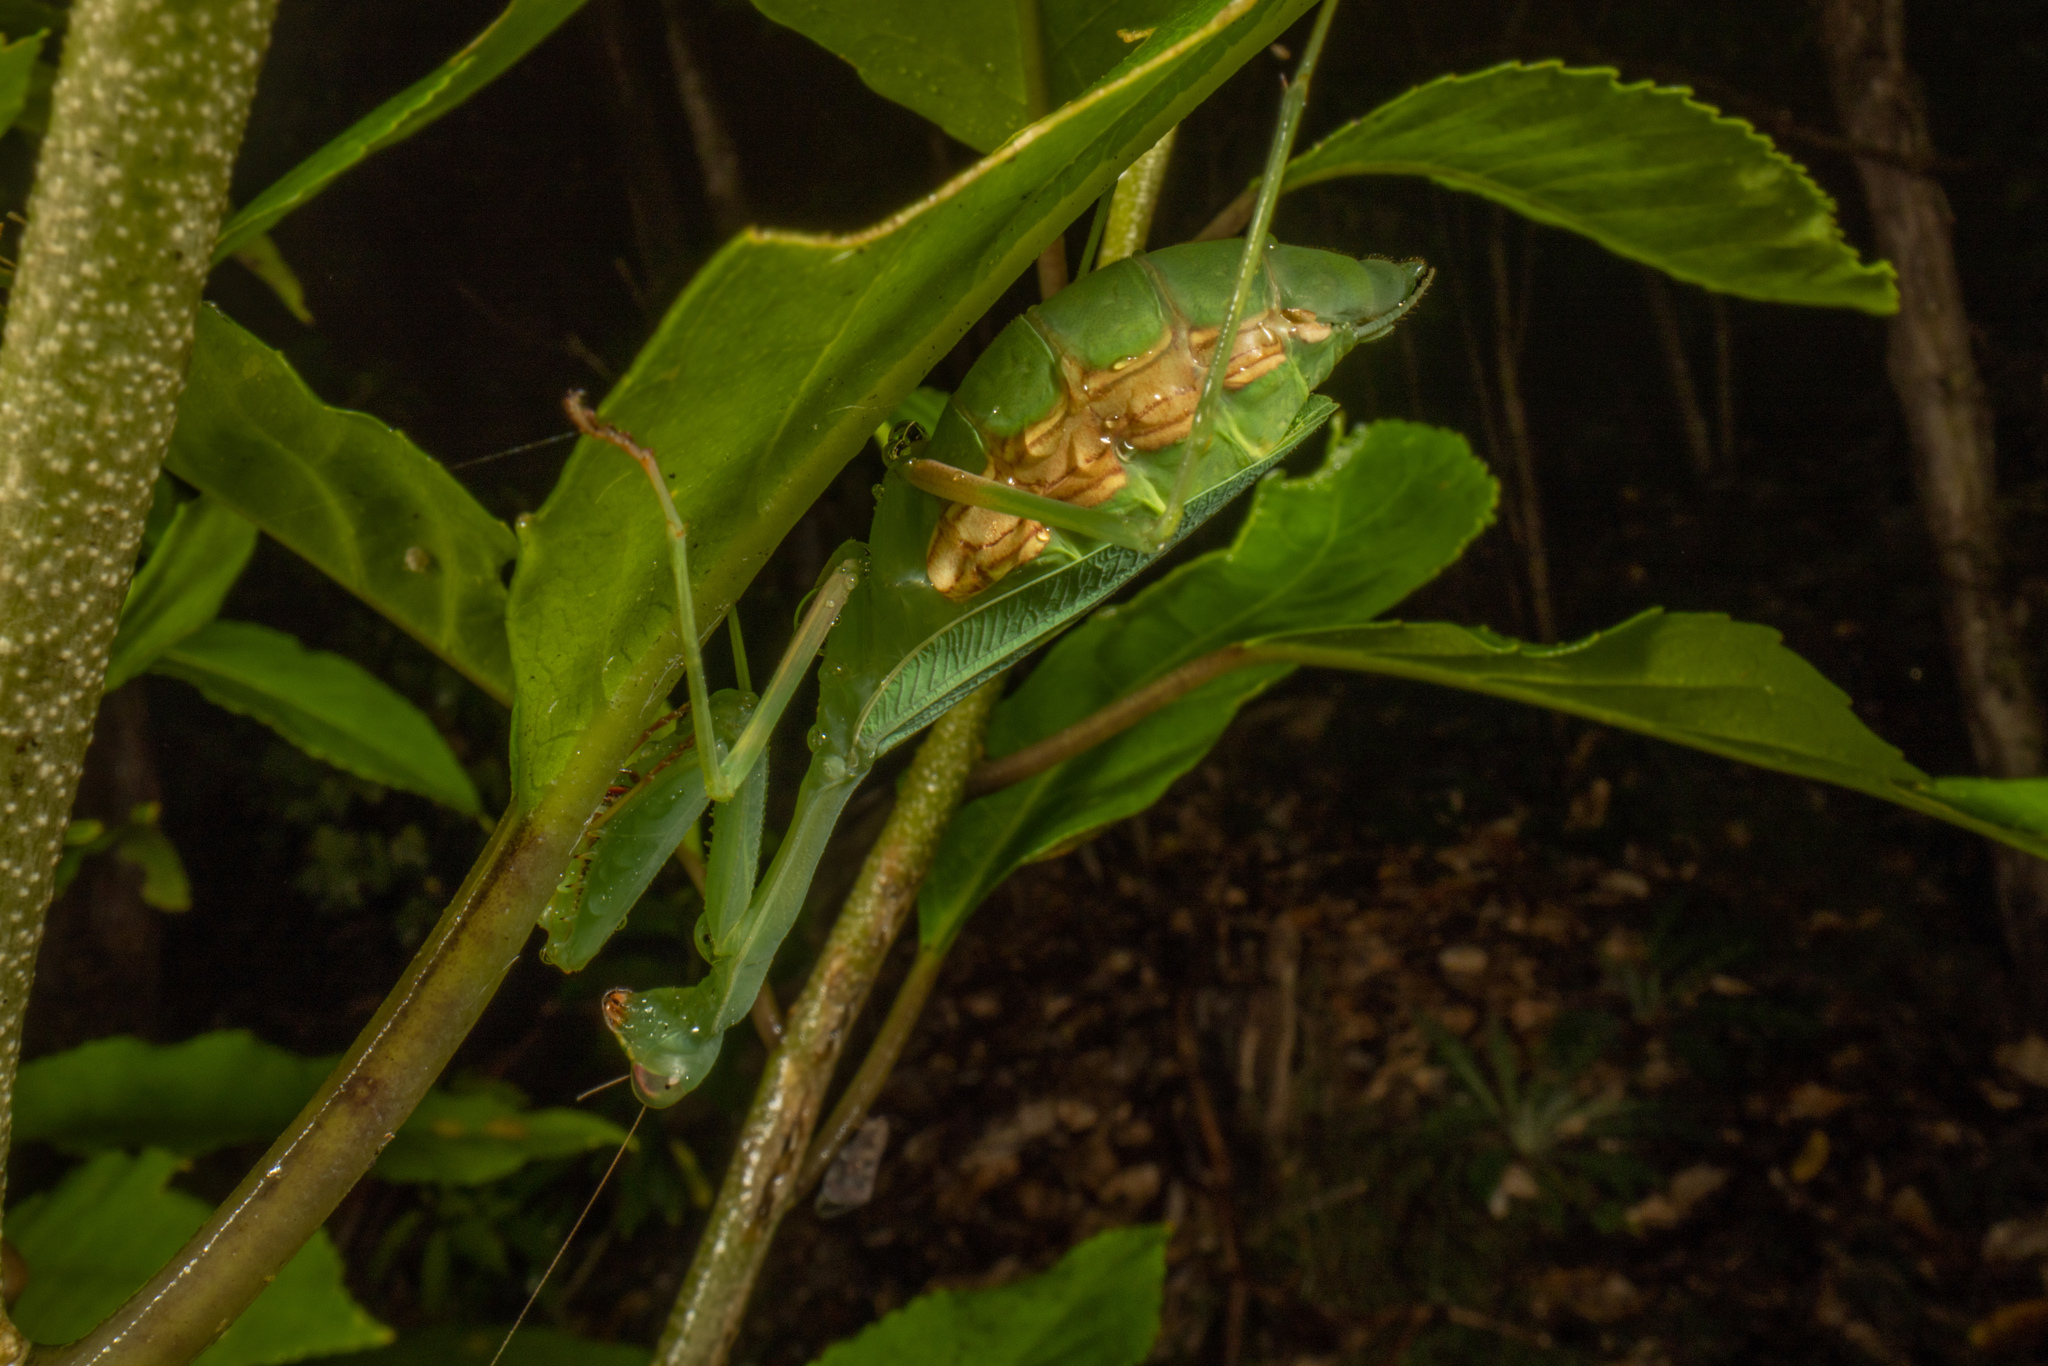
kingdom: Animalia
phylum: Arthropoda
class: Insecta
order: Mantodea
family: Miomantidae
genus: Miomantis
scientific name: Miomantis caffra
